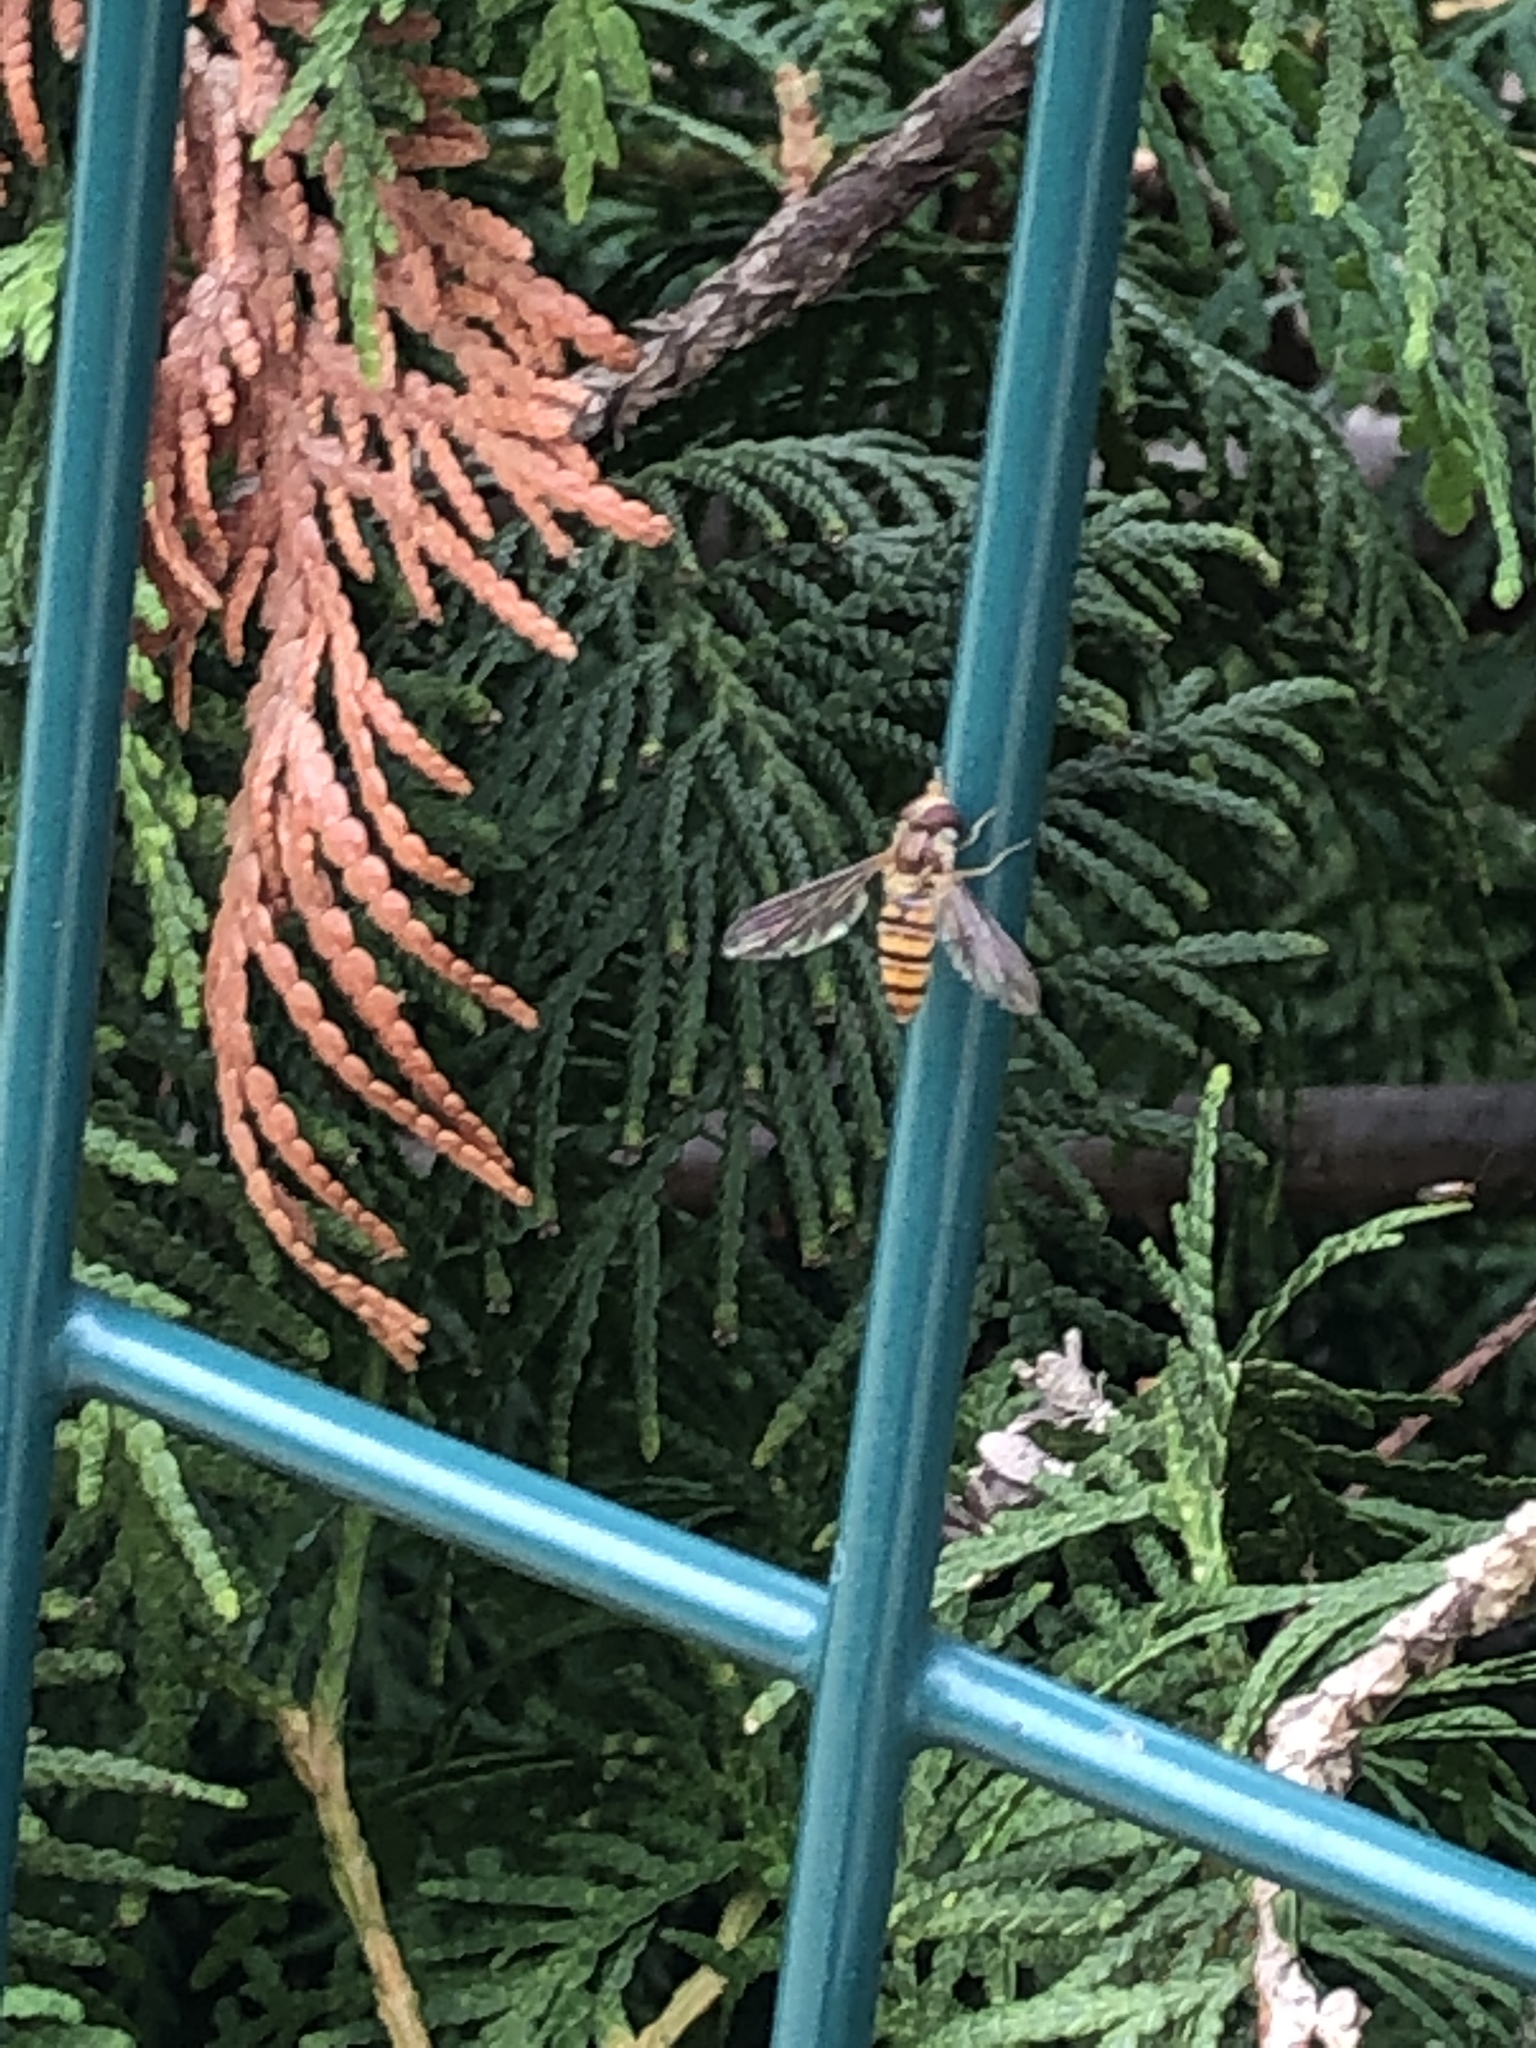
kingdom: Animalia
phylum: Arthropoda
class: Insecta
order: Diptera
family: Syrphidae
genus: Episyrphus
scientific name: Episyrphus balteatus
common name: Marmalade hoverfly
